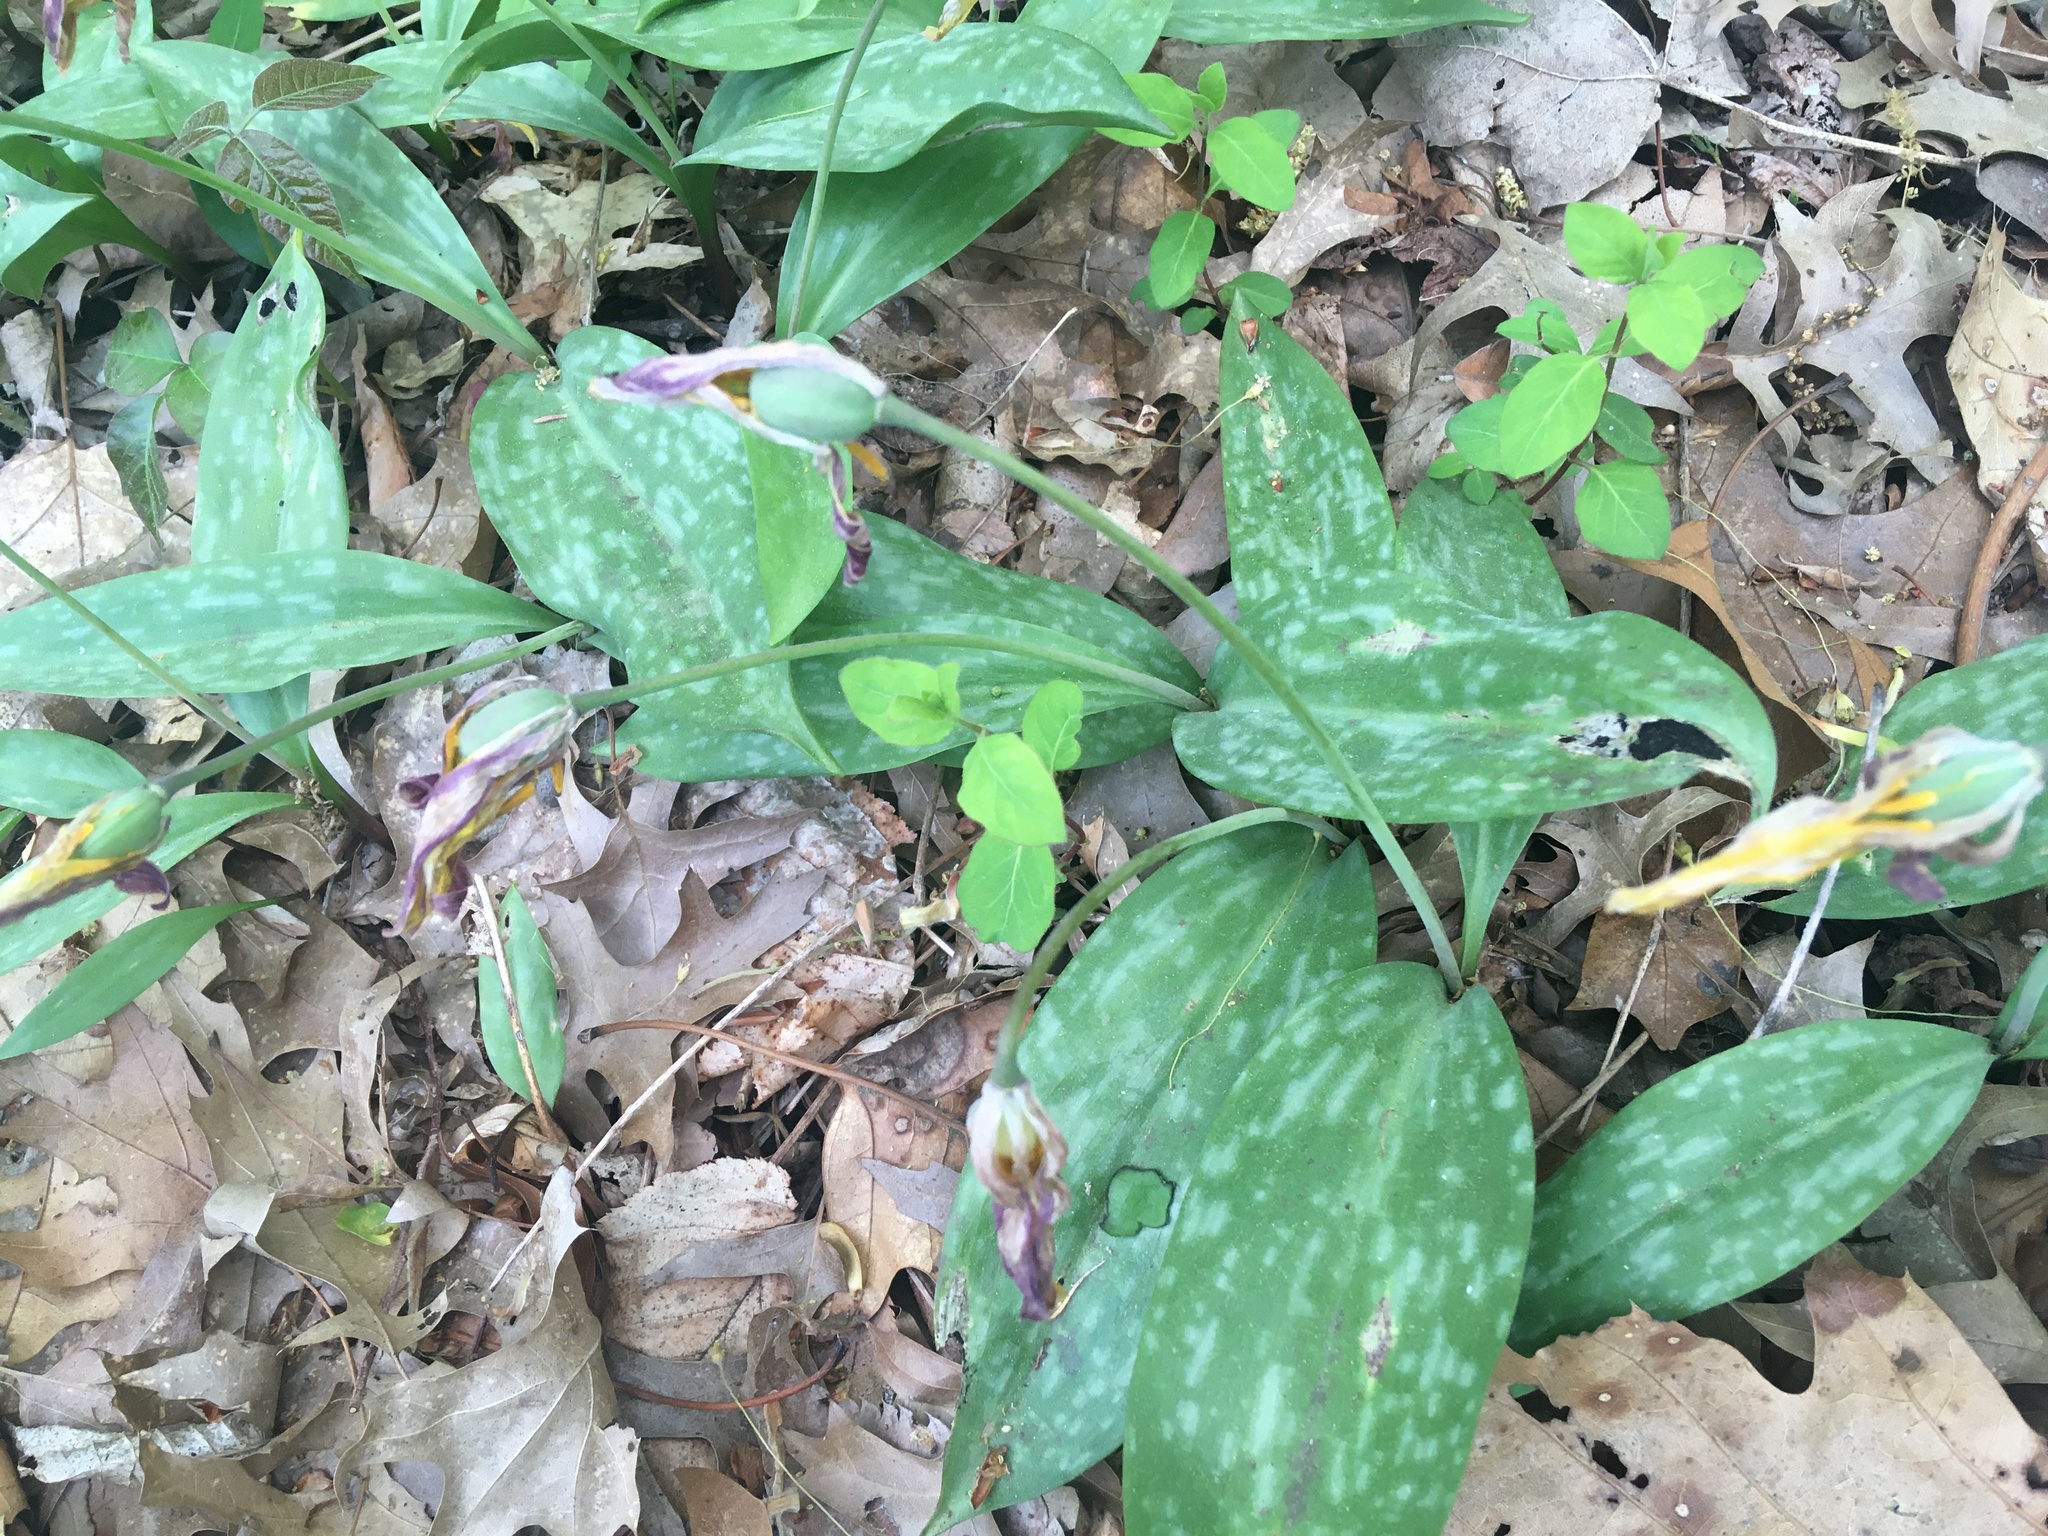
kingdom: Plantae
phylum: Tracheophyta
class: Liliopsida
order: Liliales
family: Liliaceae
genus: Erythronium
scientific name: Erythronium americanum
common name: Yellow adder's-tongue
